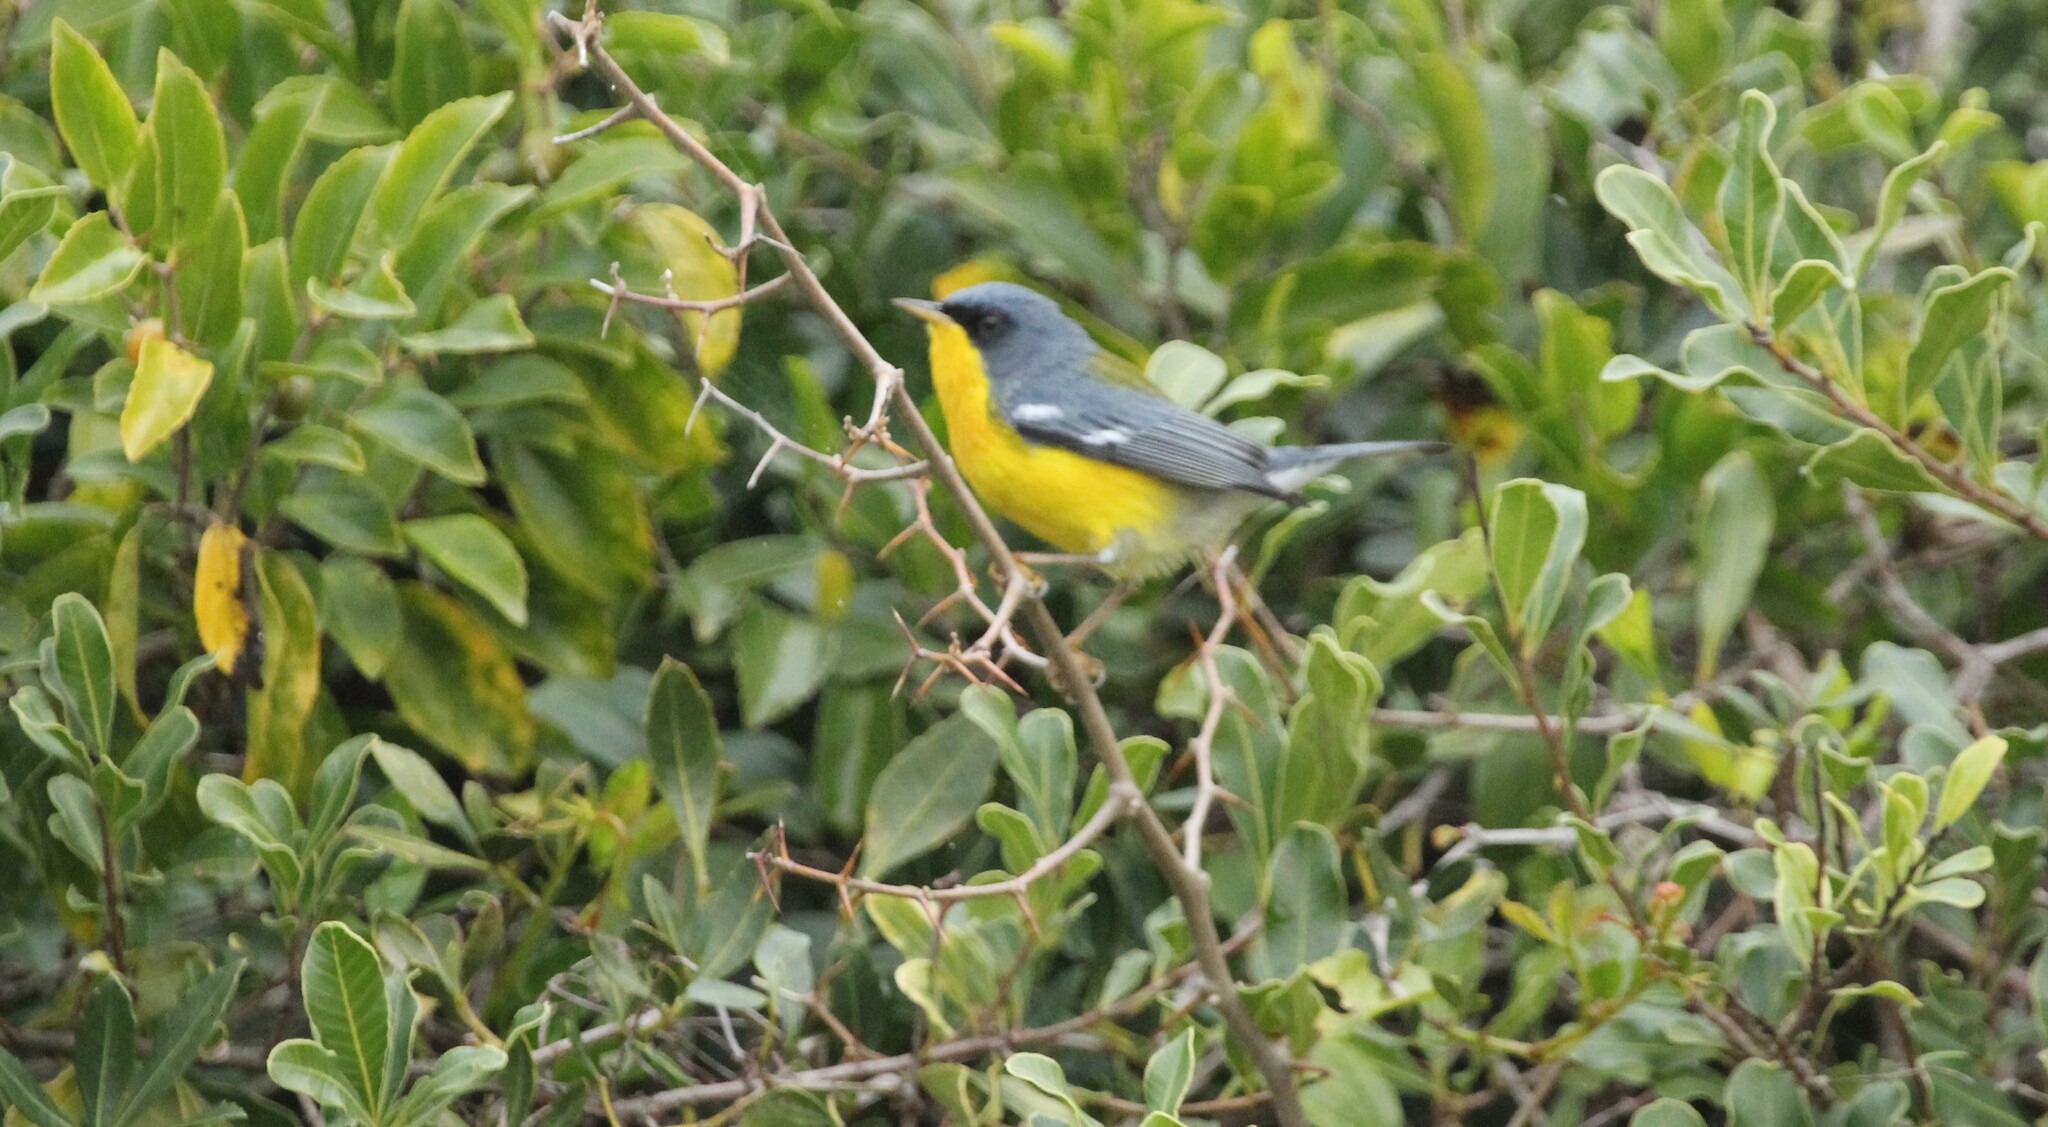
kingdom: Animalia
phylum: Chordata
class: Aves
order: Passeriformes
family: Parulidae
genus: Setophaga
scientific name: Setophaga pitiayumi
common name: Tropical parula
